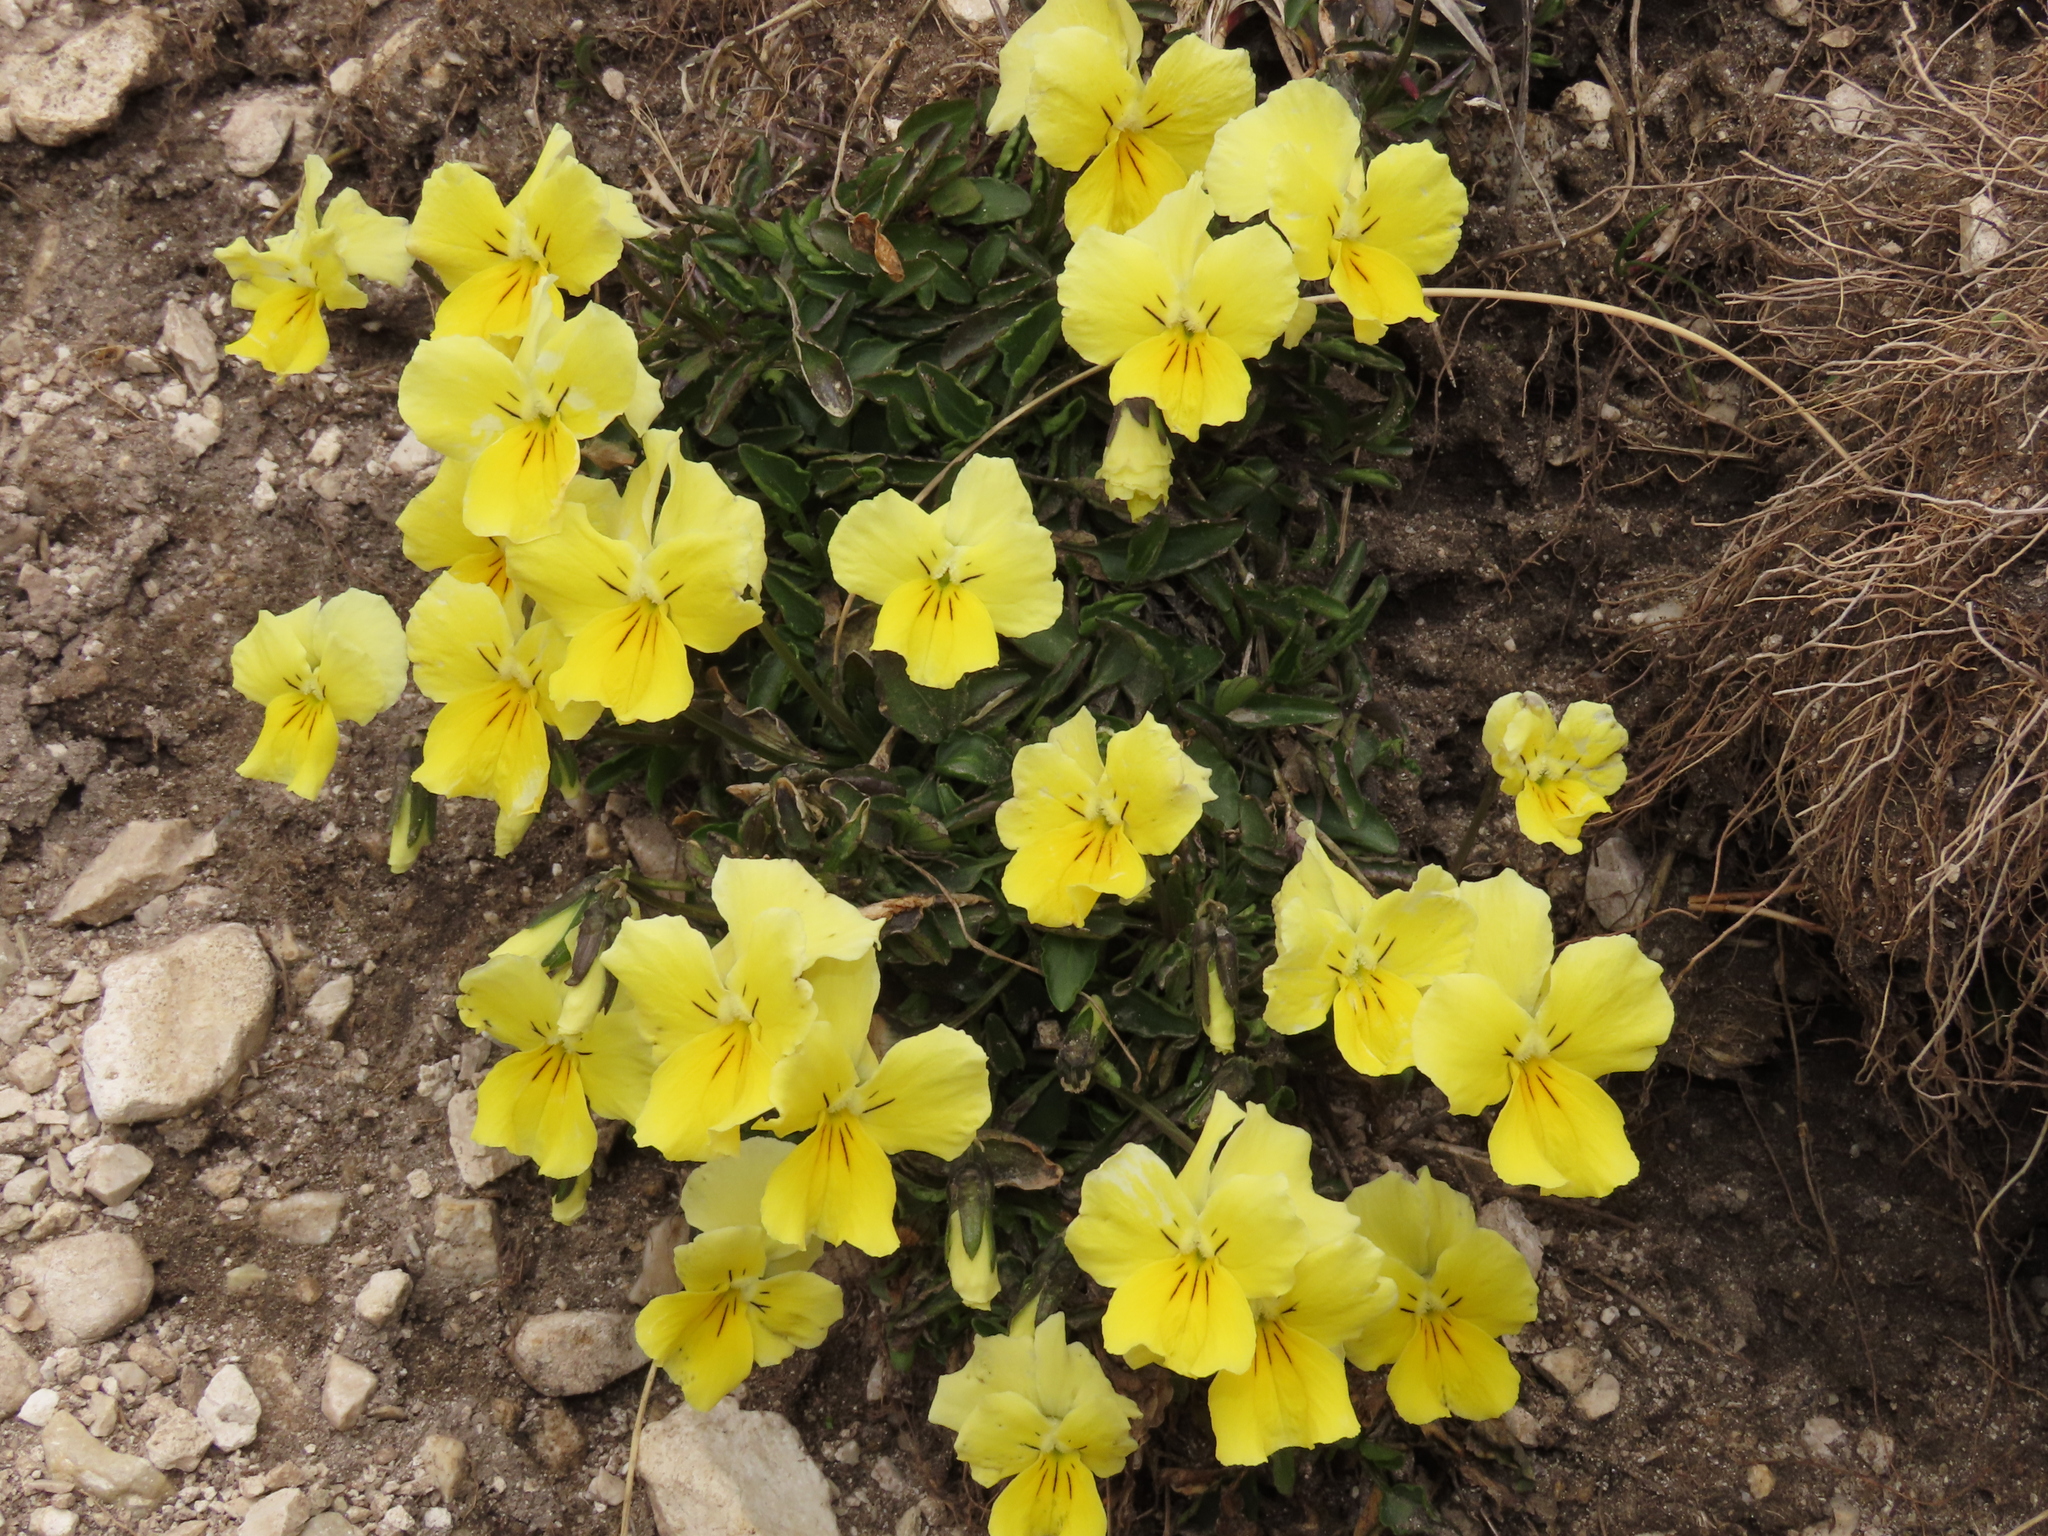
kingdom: Plantae
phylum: Tracheophyta
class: Magnoliopsida
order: Malpighiales
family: Violaceae
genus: Viola
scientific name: Viola eugeniae
